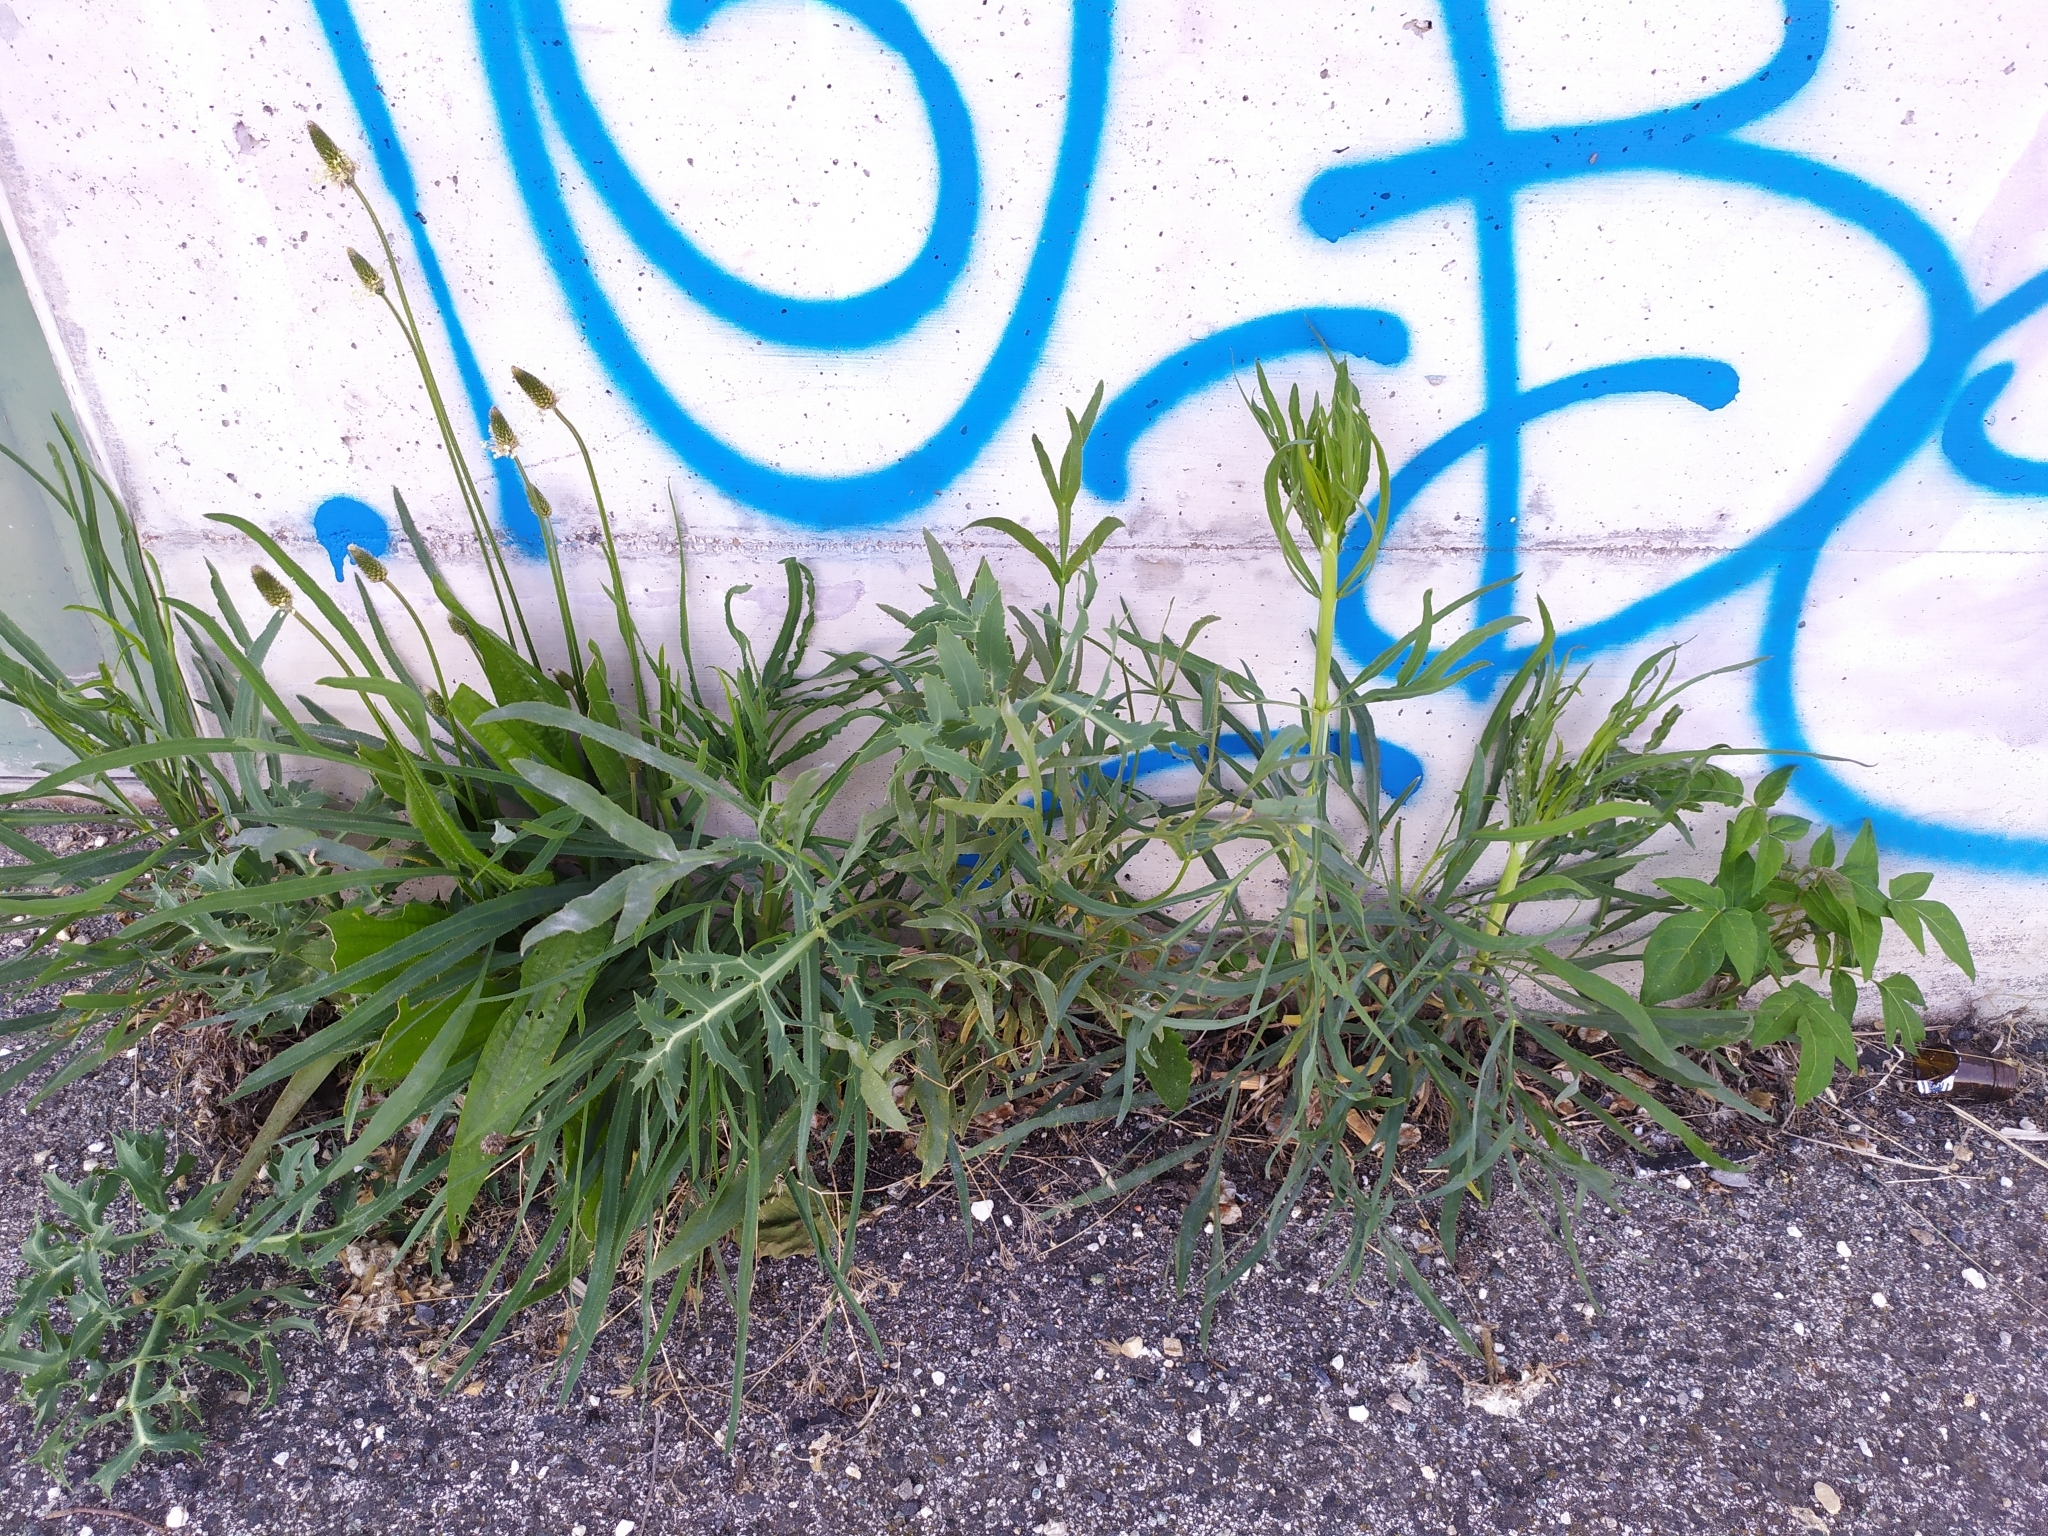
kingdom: Plantae
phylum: Tracheophyta
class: Magnoliopsida
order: Apiales
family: Apiaceae
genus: Falcaria
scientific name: Falcaria vulgaris
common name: Longleaf
